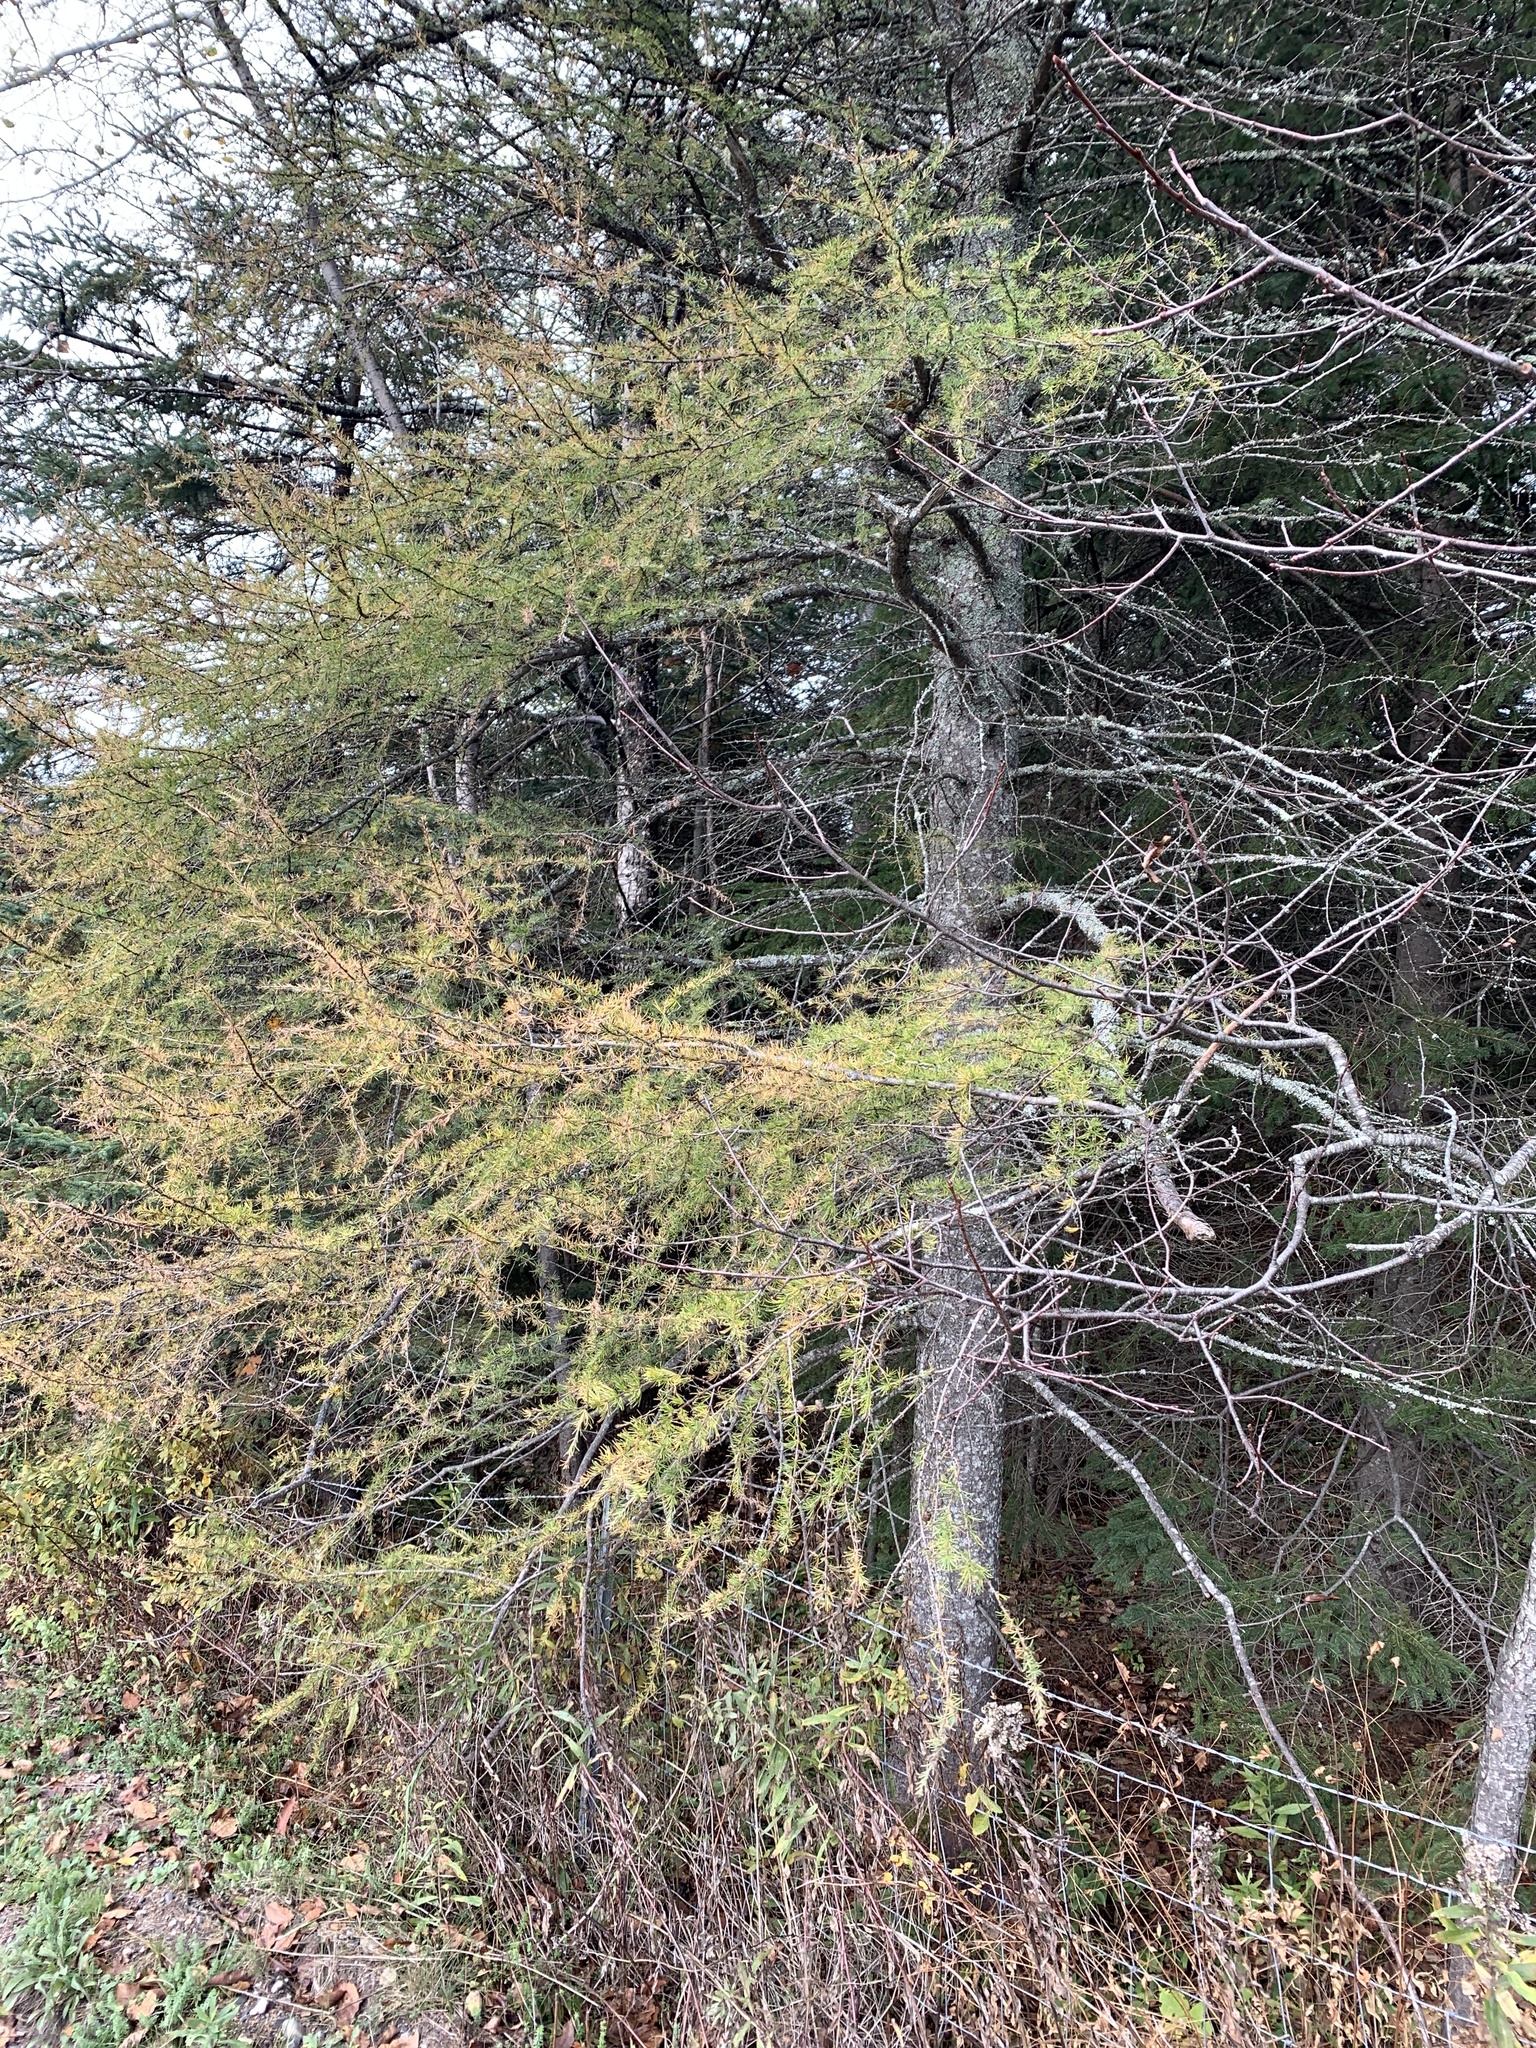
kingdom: Plantae
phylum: Tracheophyta
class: Pinopsida
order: Pinales
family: Pinaceae
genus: Larix
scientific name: Larix laricina
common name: American larch
